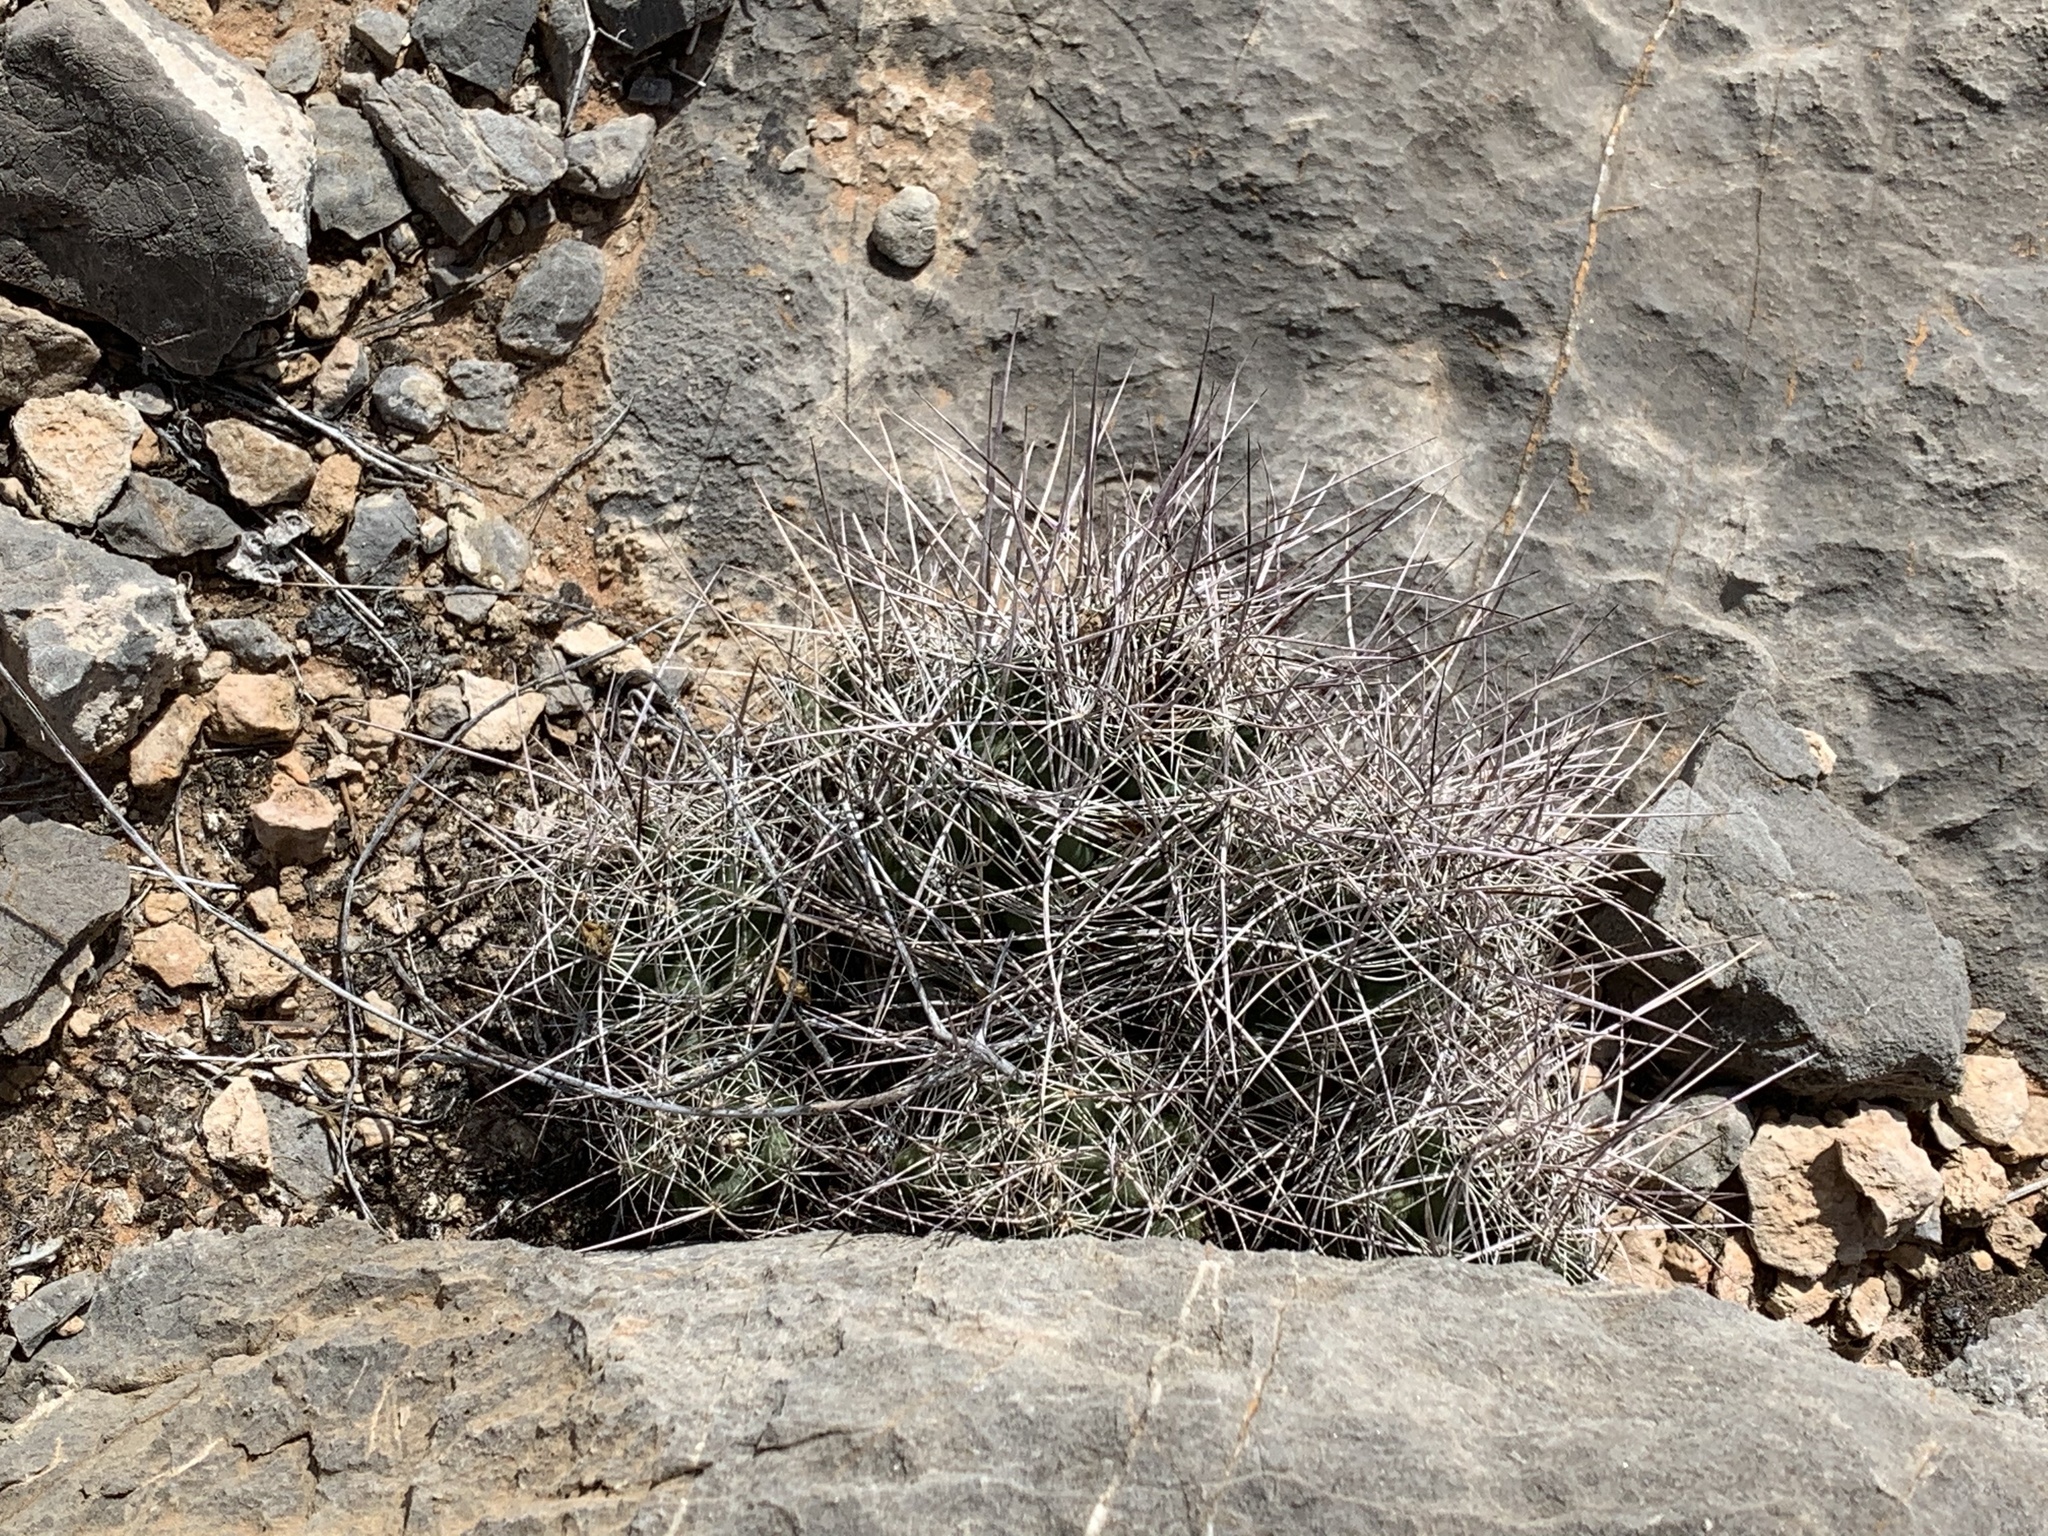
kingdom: Plantae
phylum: Tracheophyta
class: Magnoliopsida
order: Caryophyllales
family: Cactaceae
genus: Coryphantha
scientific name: Coryphantha macromeris
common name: Nipple beehive cactus
